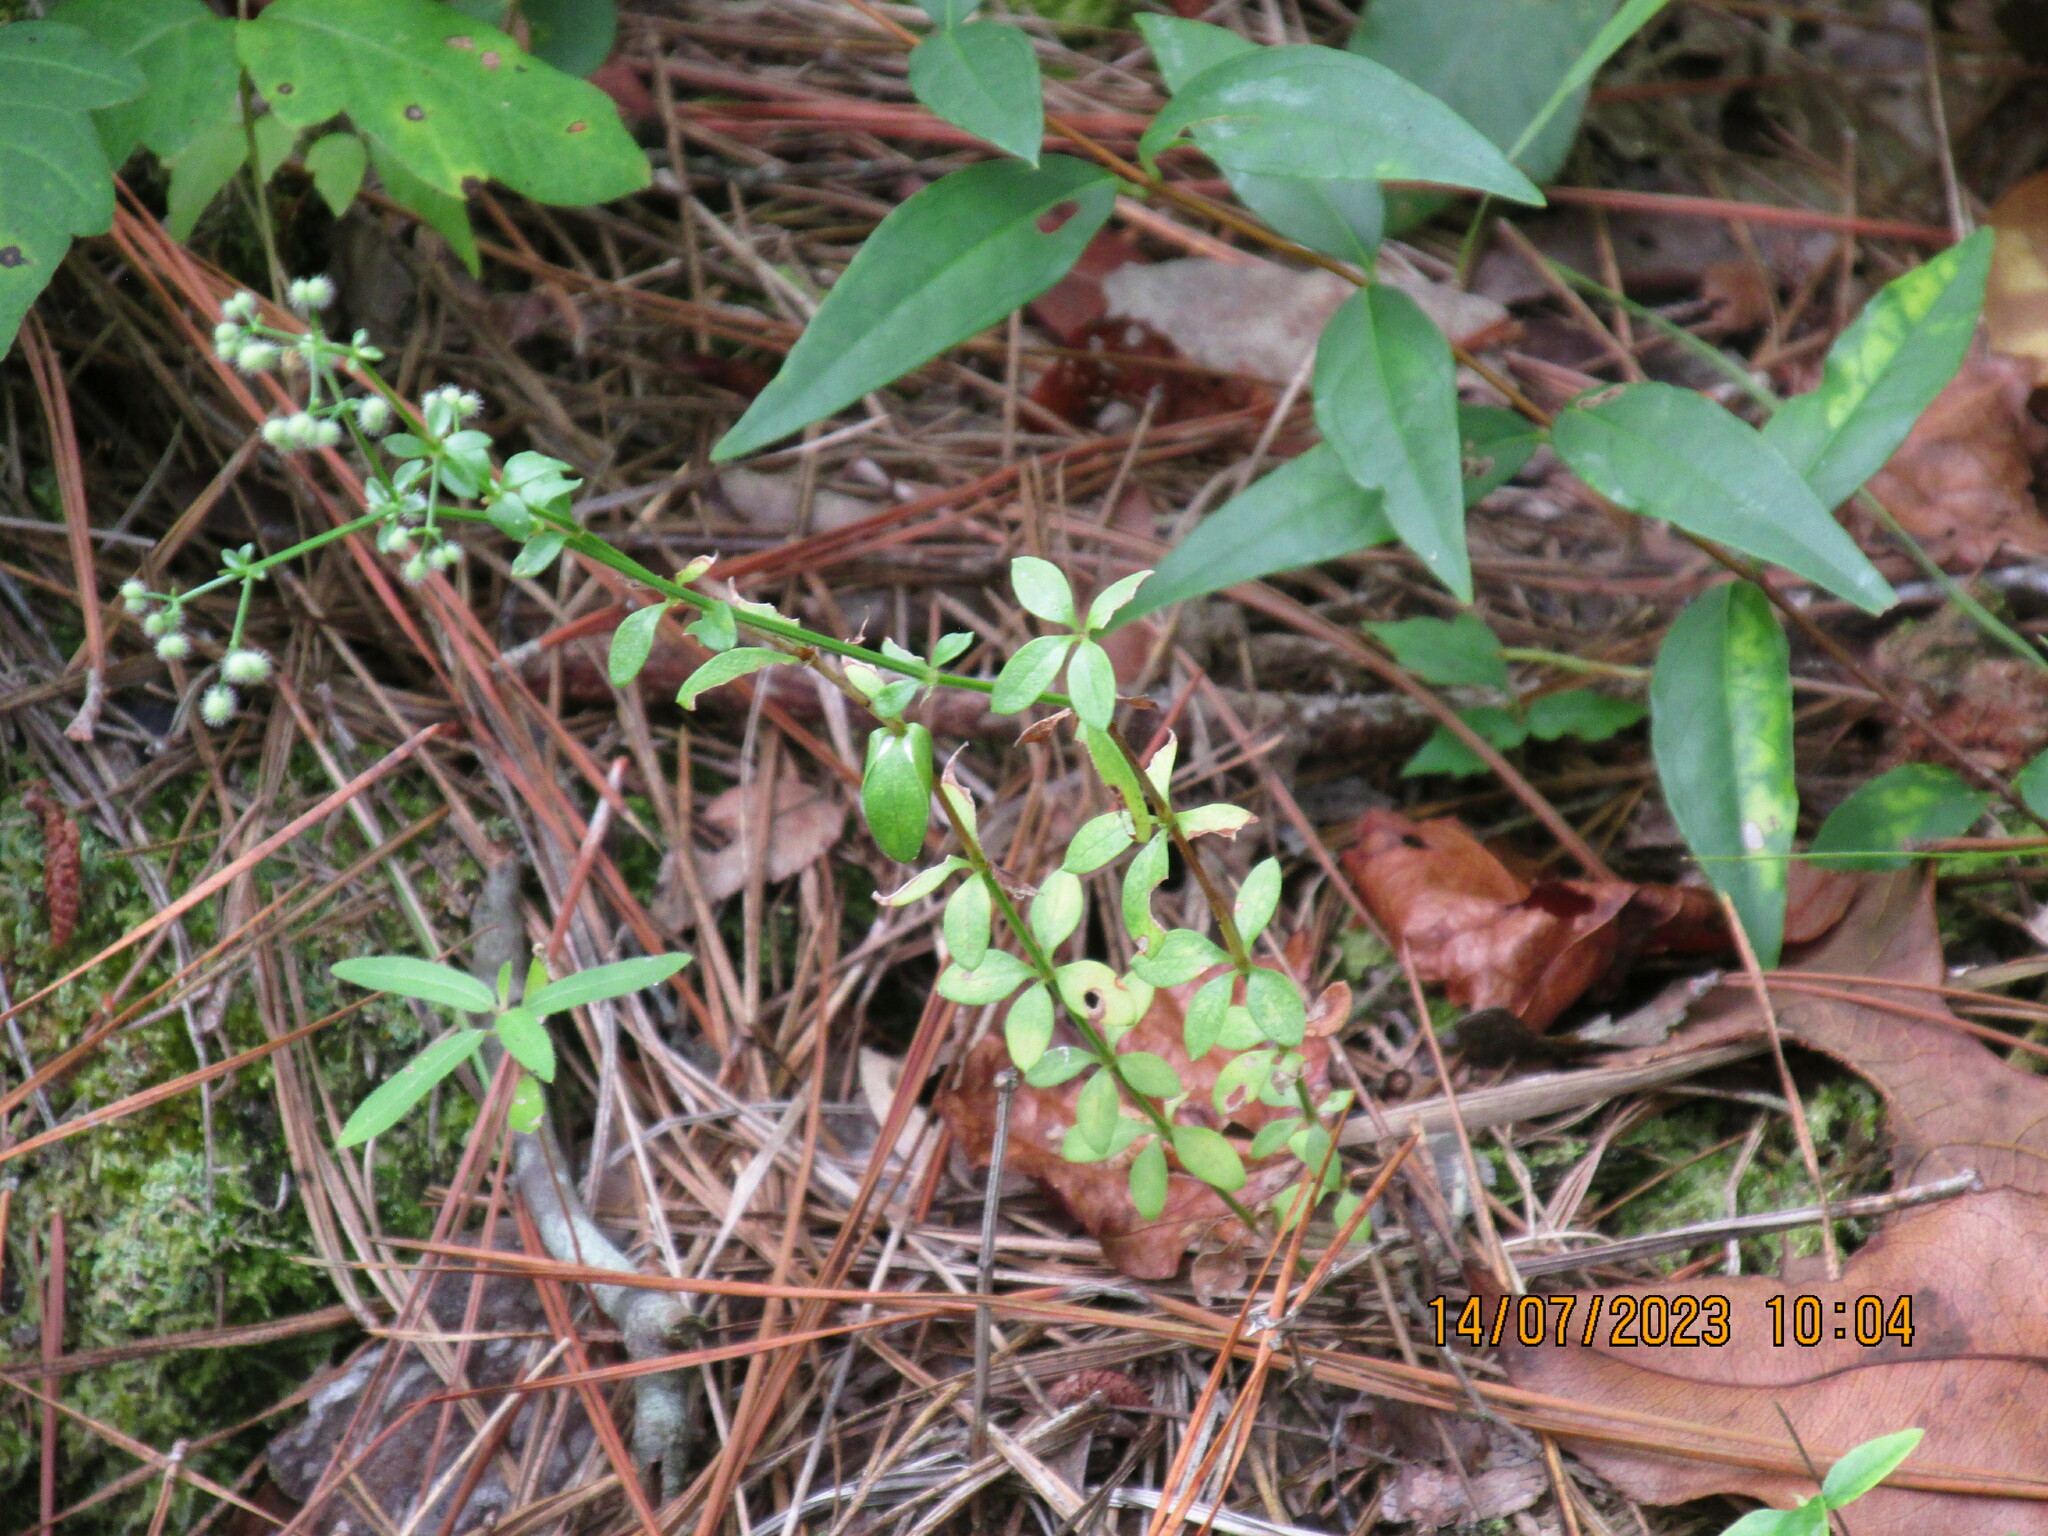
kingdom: Plantae
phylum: Tracheophyta
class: Magnoliopsida
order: Gentianales
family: Rubiaceae
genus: Galium
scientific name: Galium pilosum
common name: Hairy bedstraw
